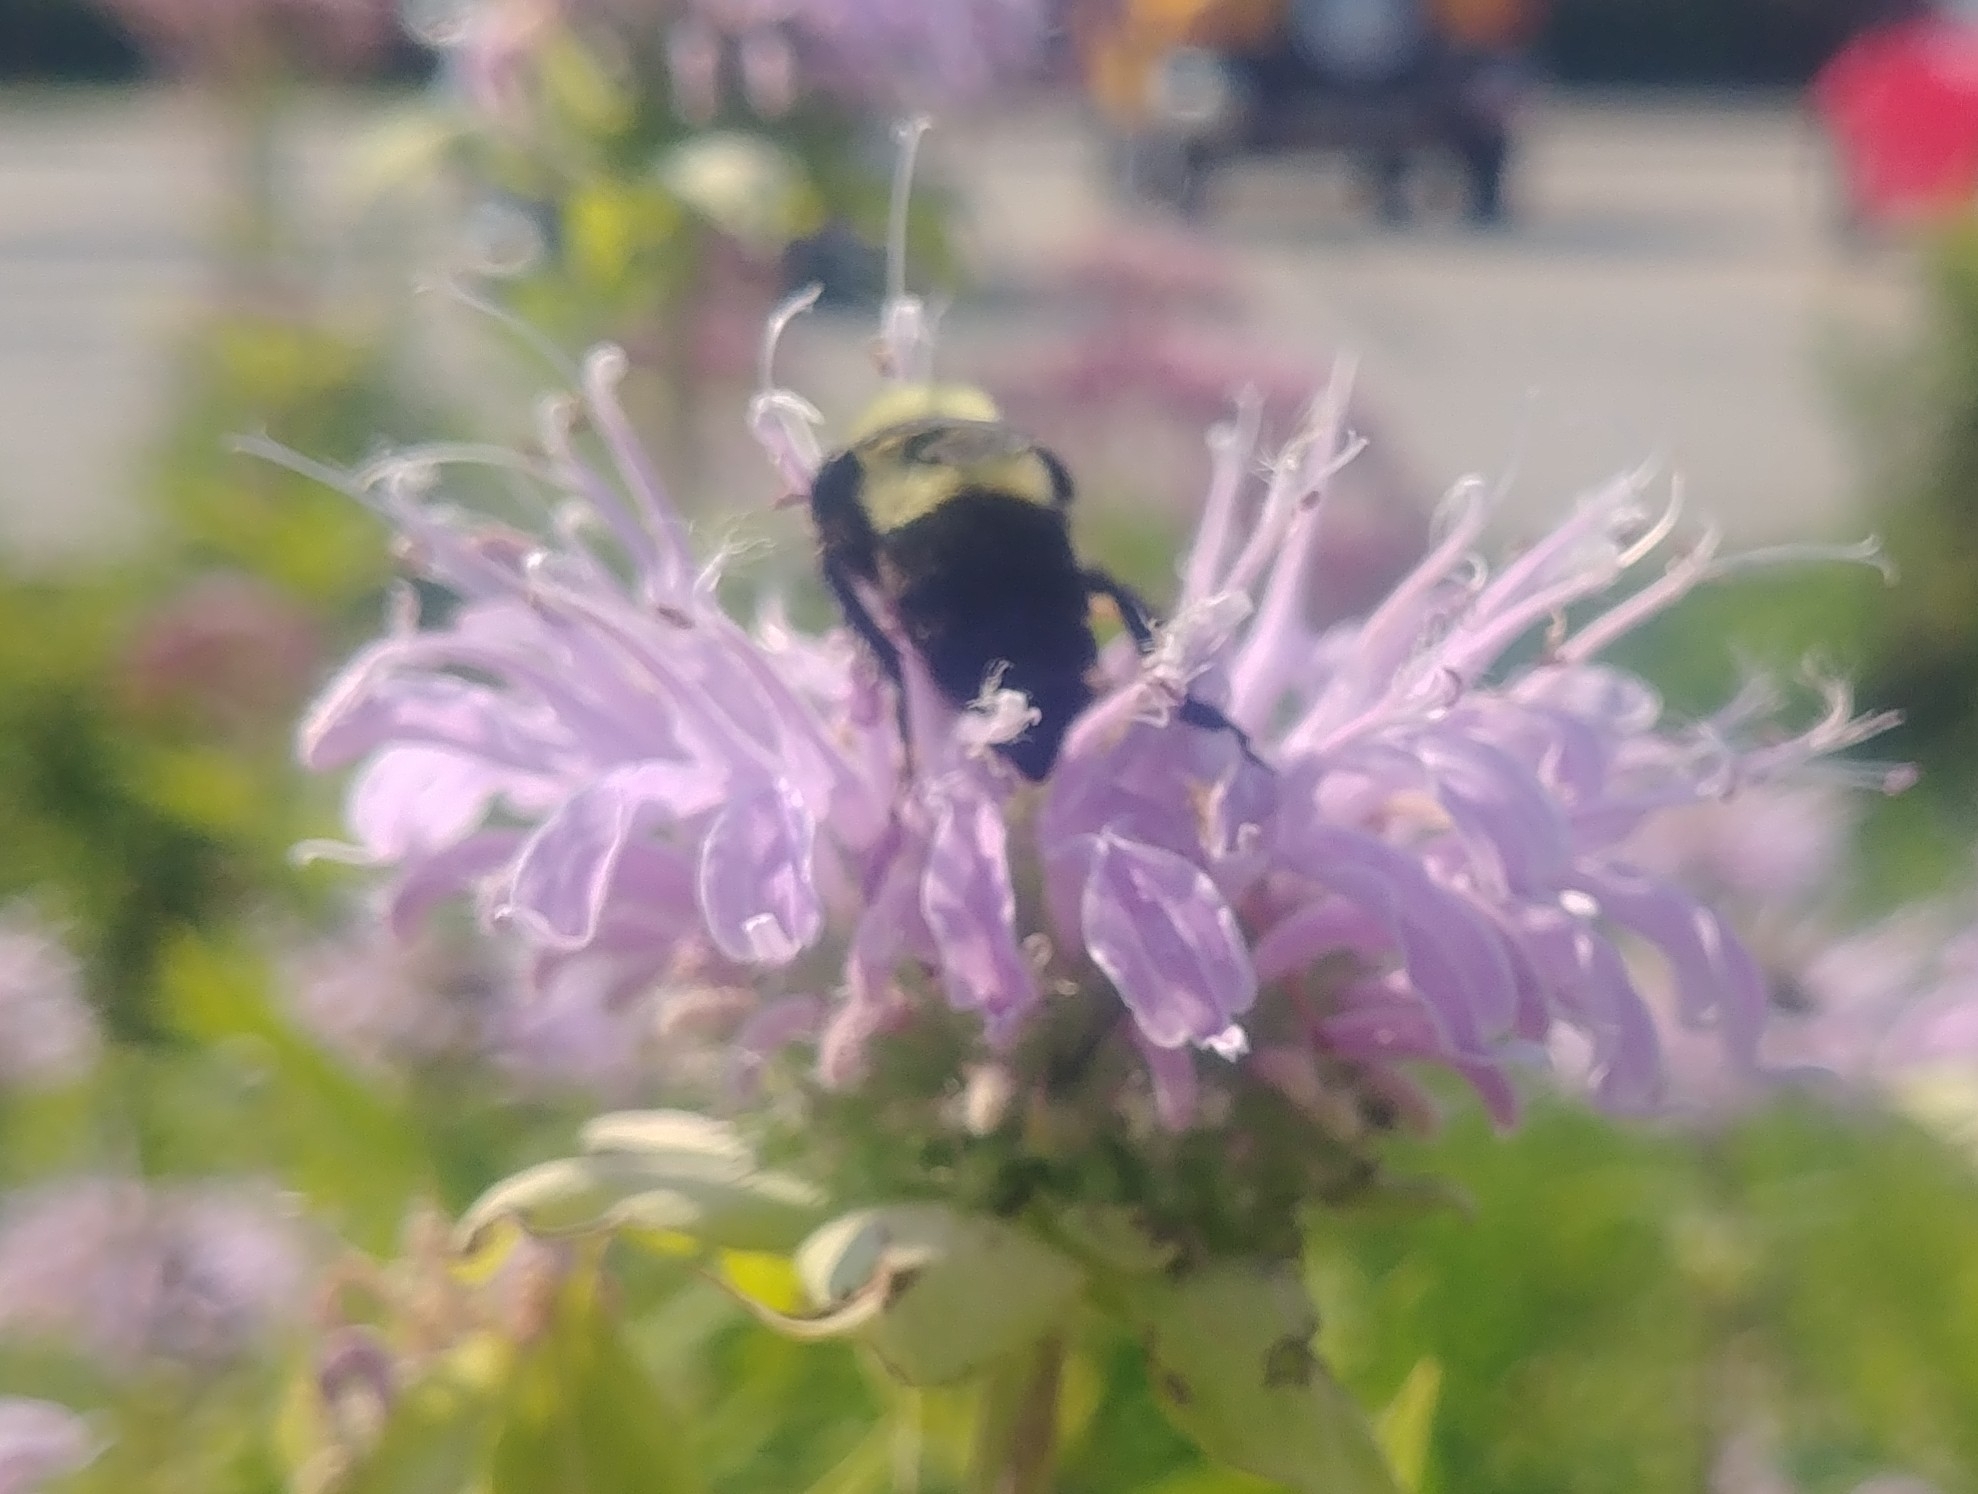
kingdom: Animalia
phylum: Arthropoda
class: Insecta
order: Hymenoptera
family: Apidae
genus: Bombus
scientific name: Bombus impatiens
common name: Common eastern bumble bee
